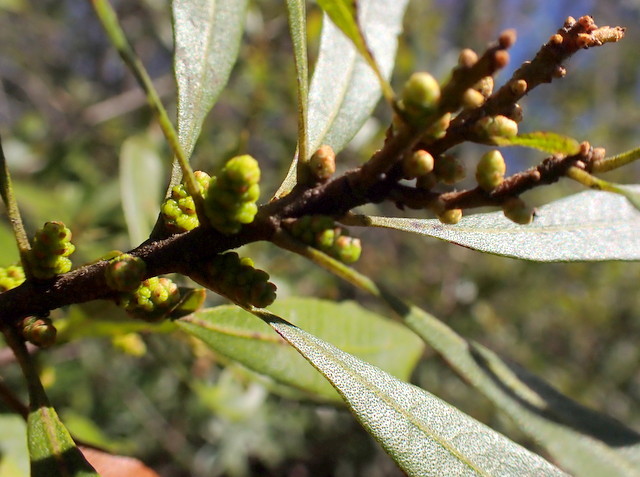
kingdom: Plantae
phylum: Tracheophyta
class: Magnoliopsida
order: Fagales
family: Myricaceae
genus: Morella
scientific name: Morella cerifera
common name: Wax myrtle
